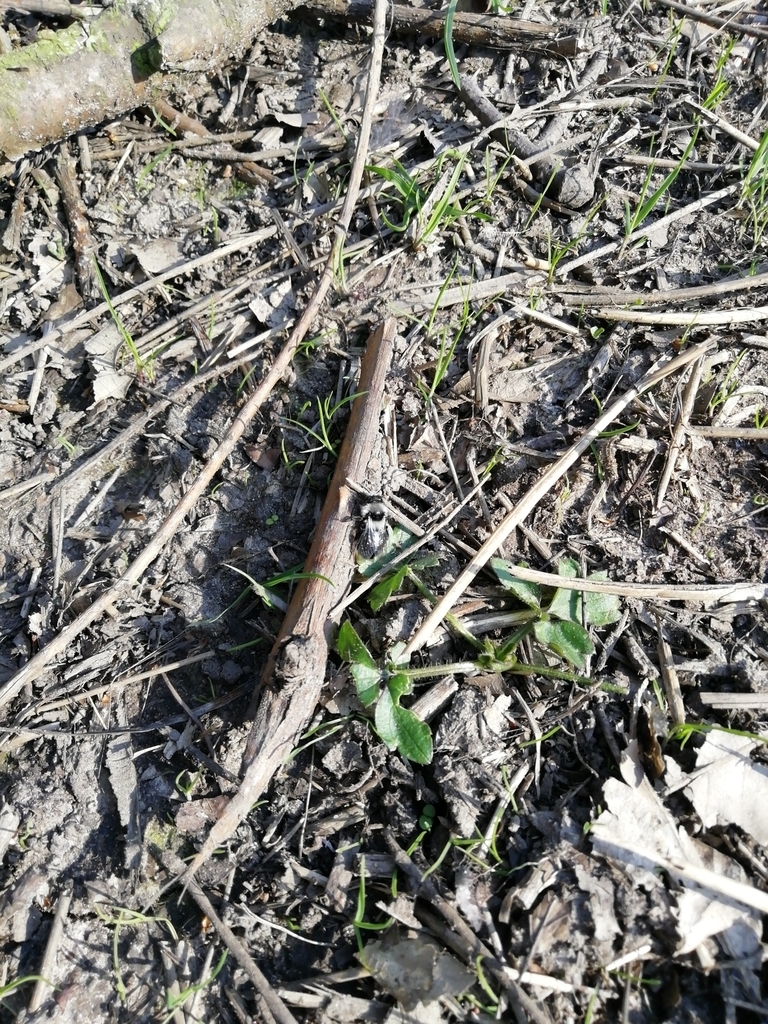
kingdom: Animalia
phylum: Arthropoda
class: Insecta
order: Hymenoptera
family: Andrenidae
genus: Andrena
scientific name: Andrena cineraria
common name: Ashy mining bee
